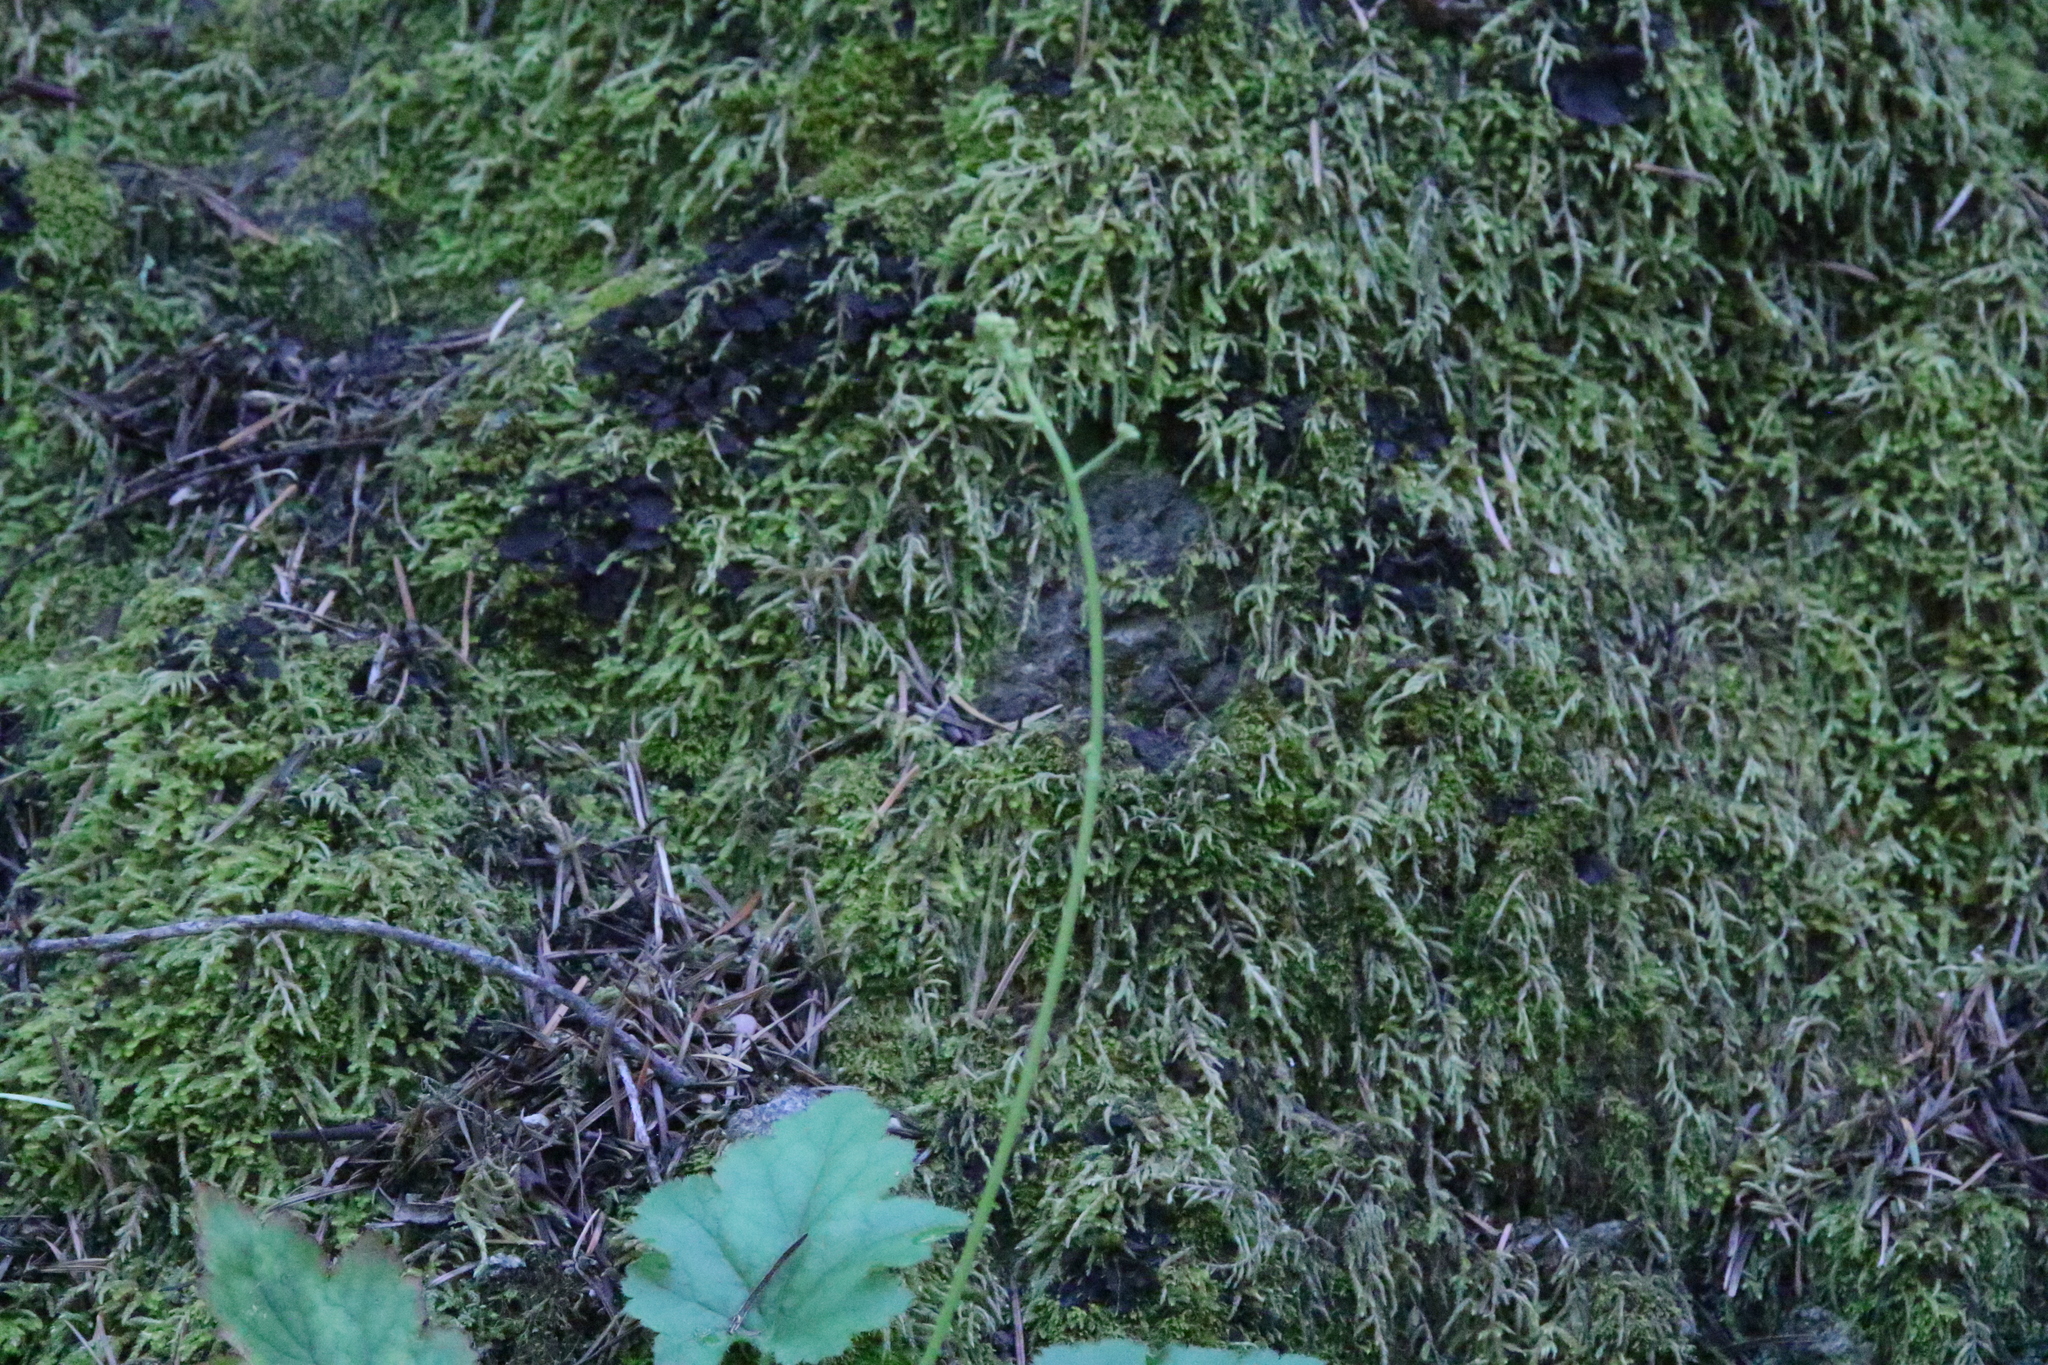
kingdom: Plantae
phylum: Tracheophyta
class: Magnoliopsida
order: Saxifragales
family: Saxifragaceae
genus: Heuchera
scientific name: Heuchera micrantha
